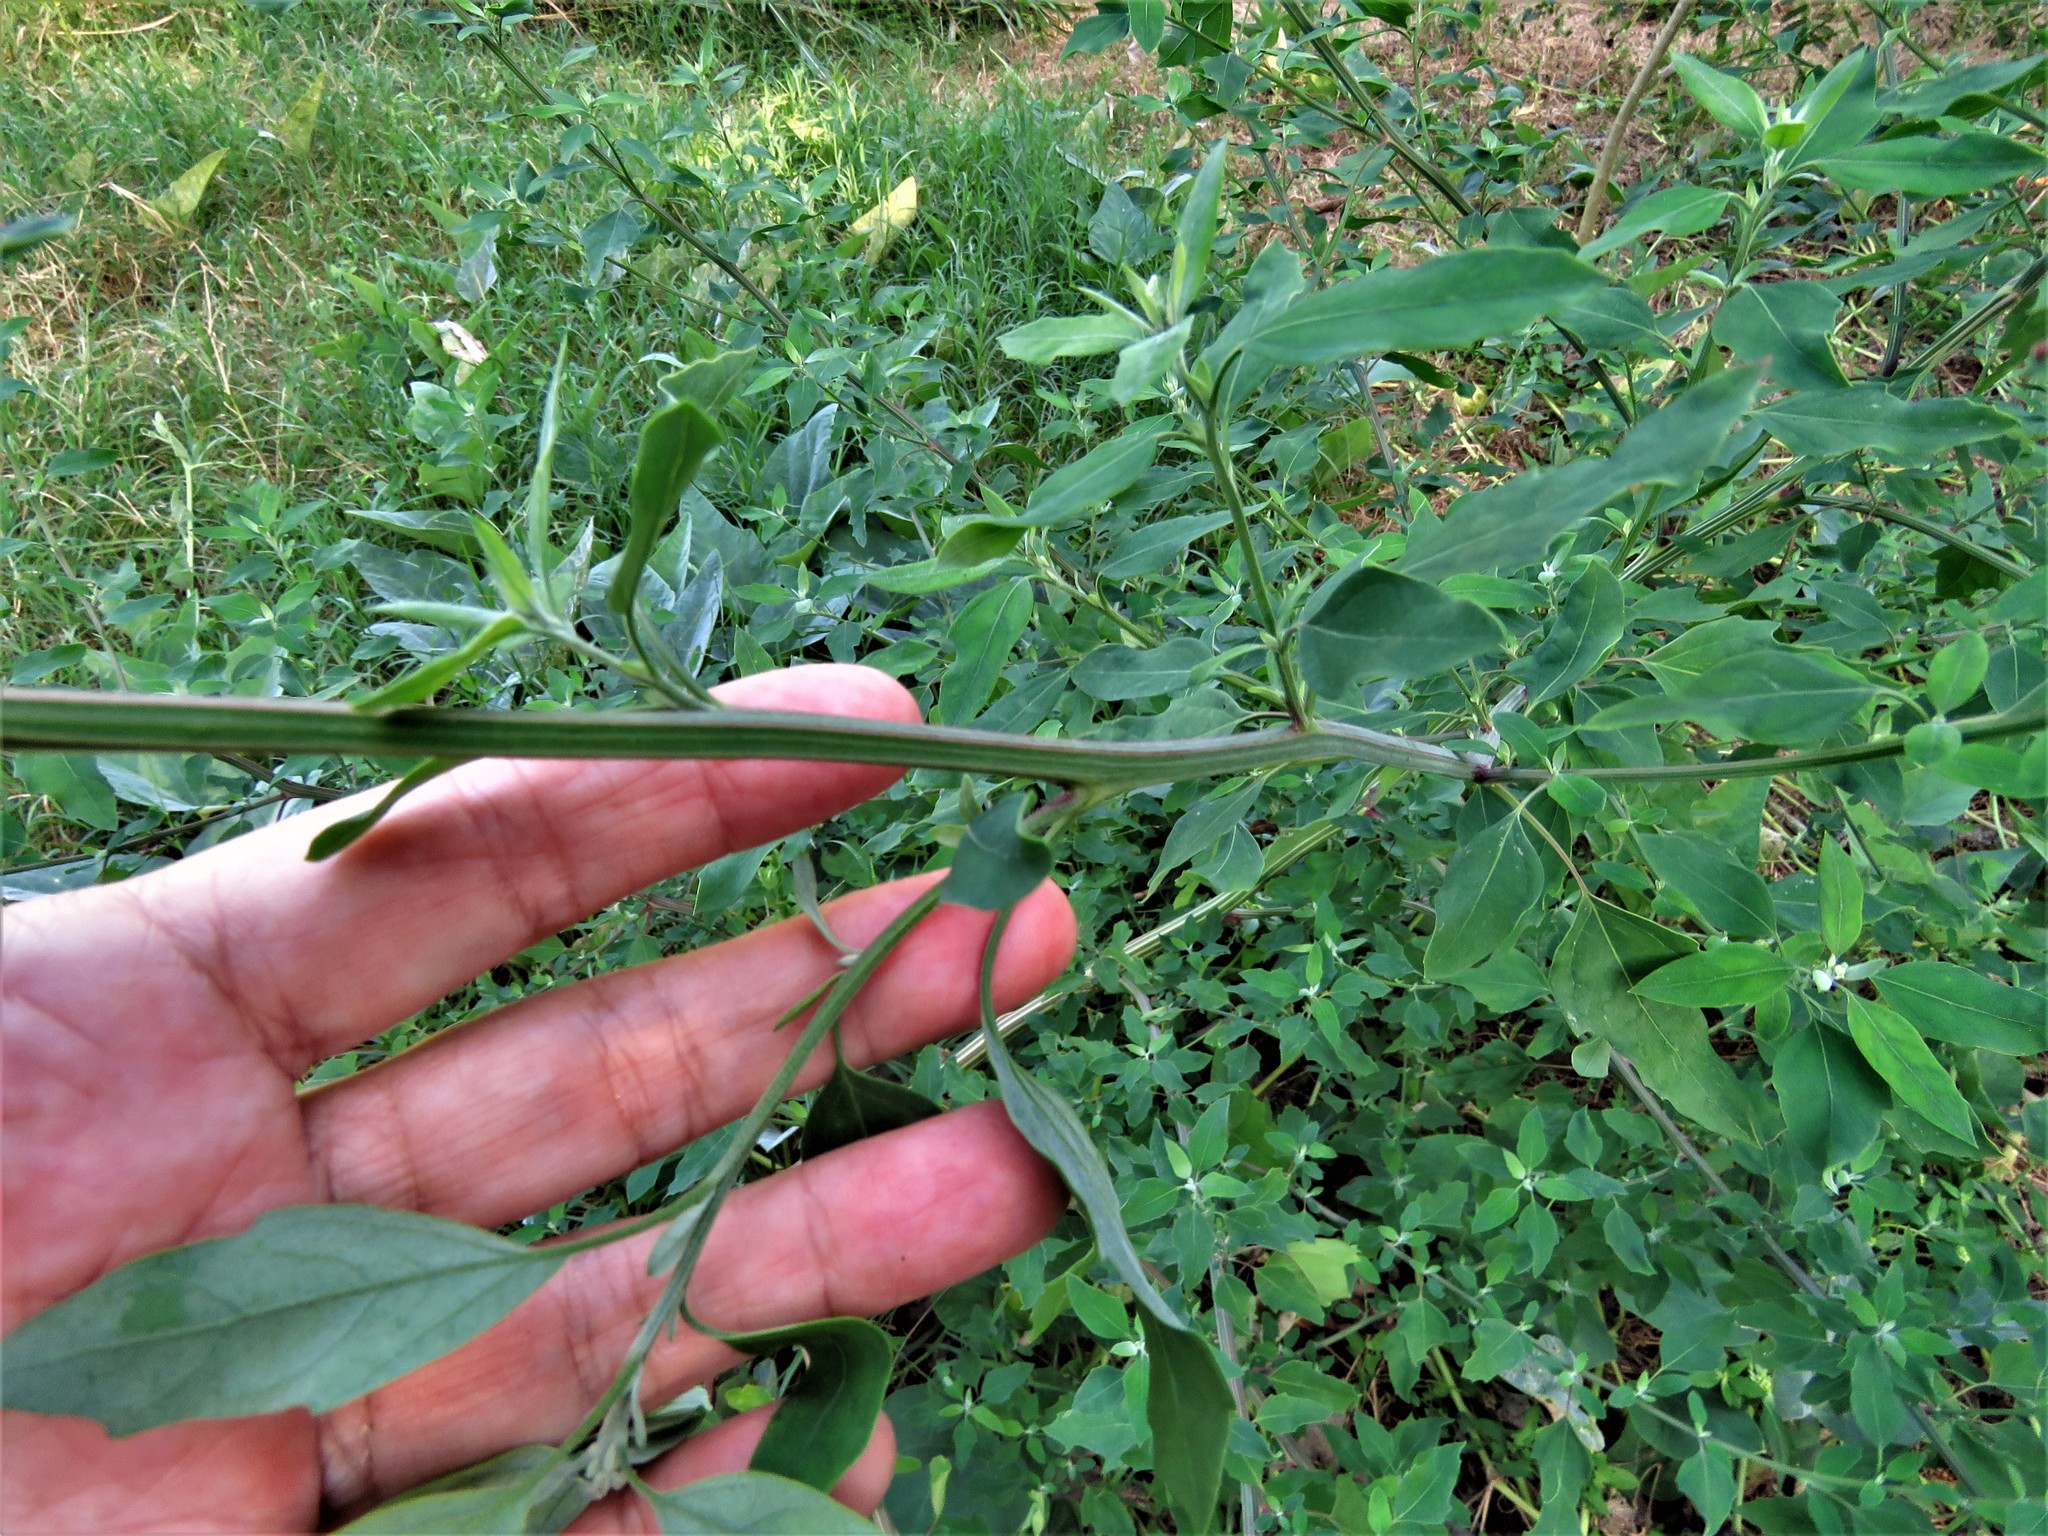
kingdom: Plantae
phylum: Tracheophyta
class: Magnoliopsida
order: Caryophyllales
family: Amaranthaceae
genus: Chenopodium
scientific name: Chenopodium album
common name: Fat-hen
